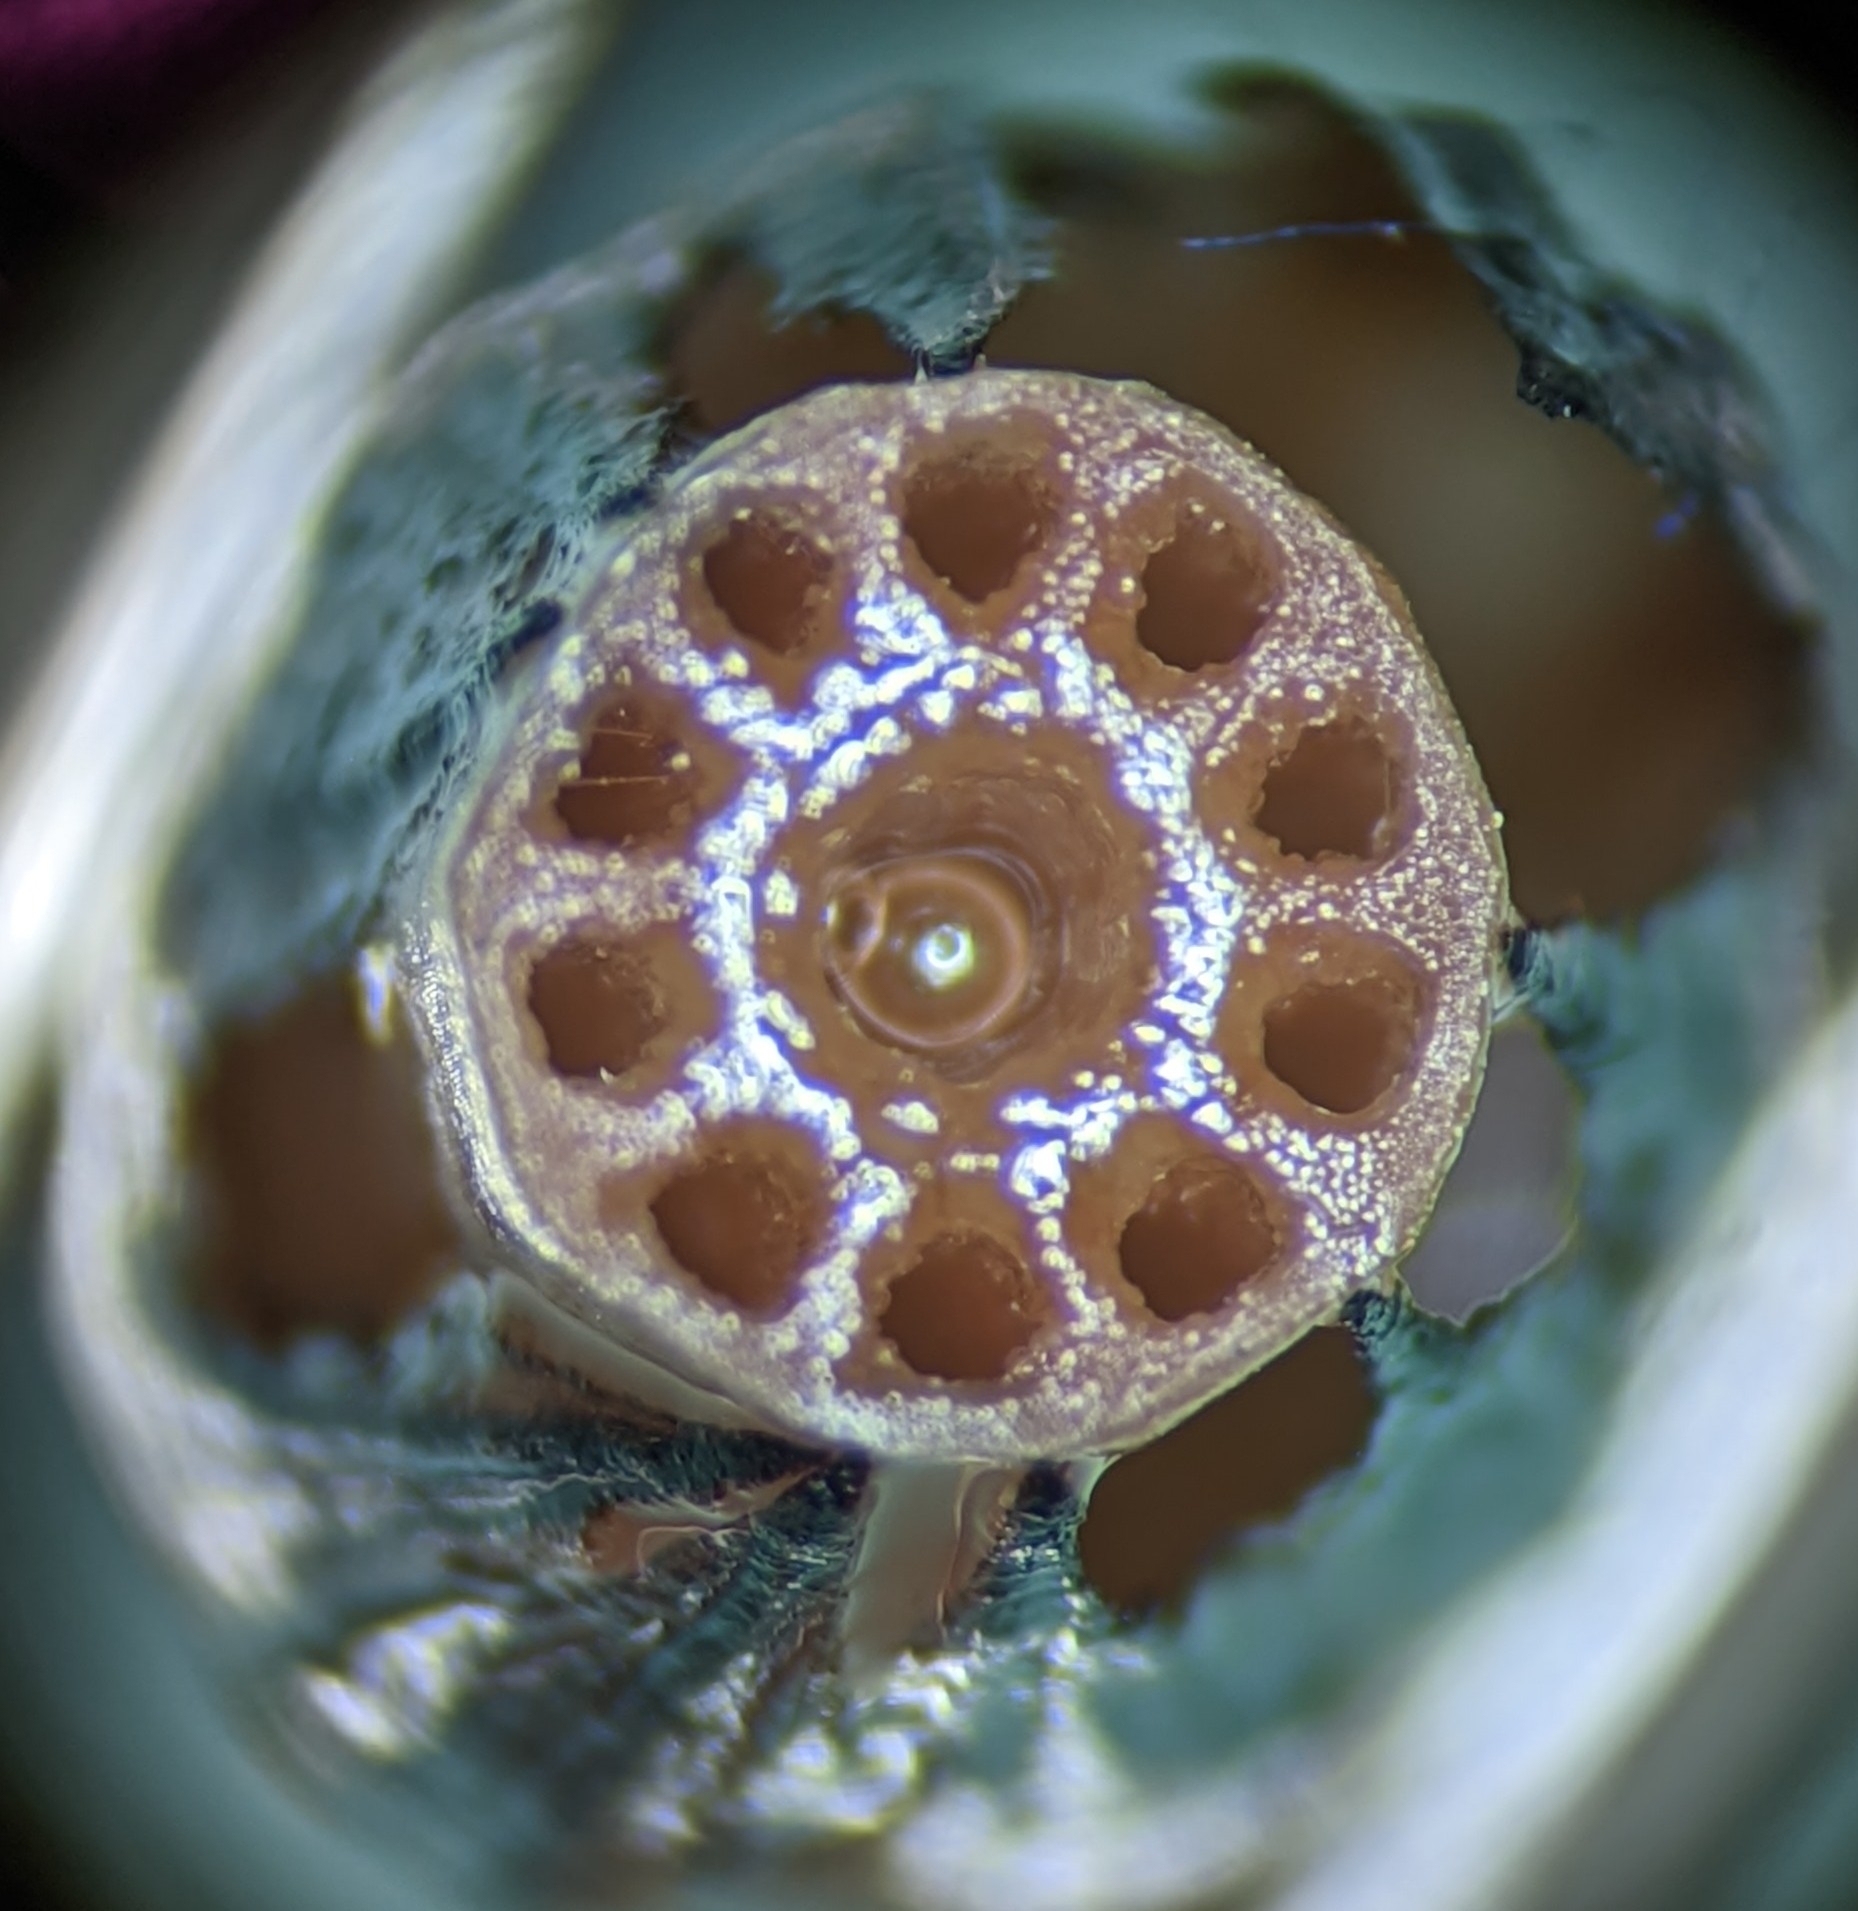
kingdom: Plantae
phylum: Tracheophyta
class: Polypodiopsida
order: Equisetales
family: Equisetaceae
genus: Equisetum
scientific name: Equisetum arvense
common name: Field horsetail
